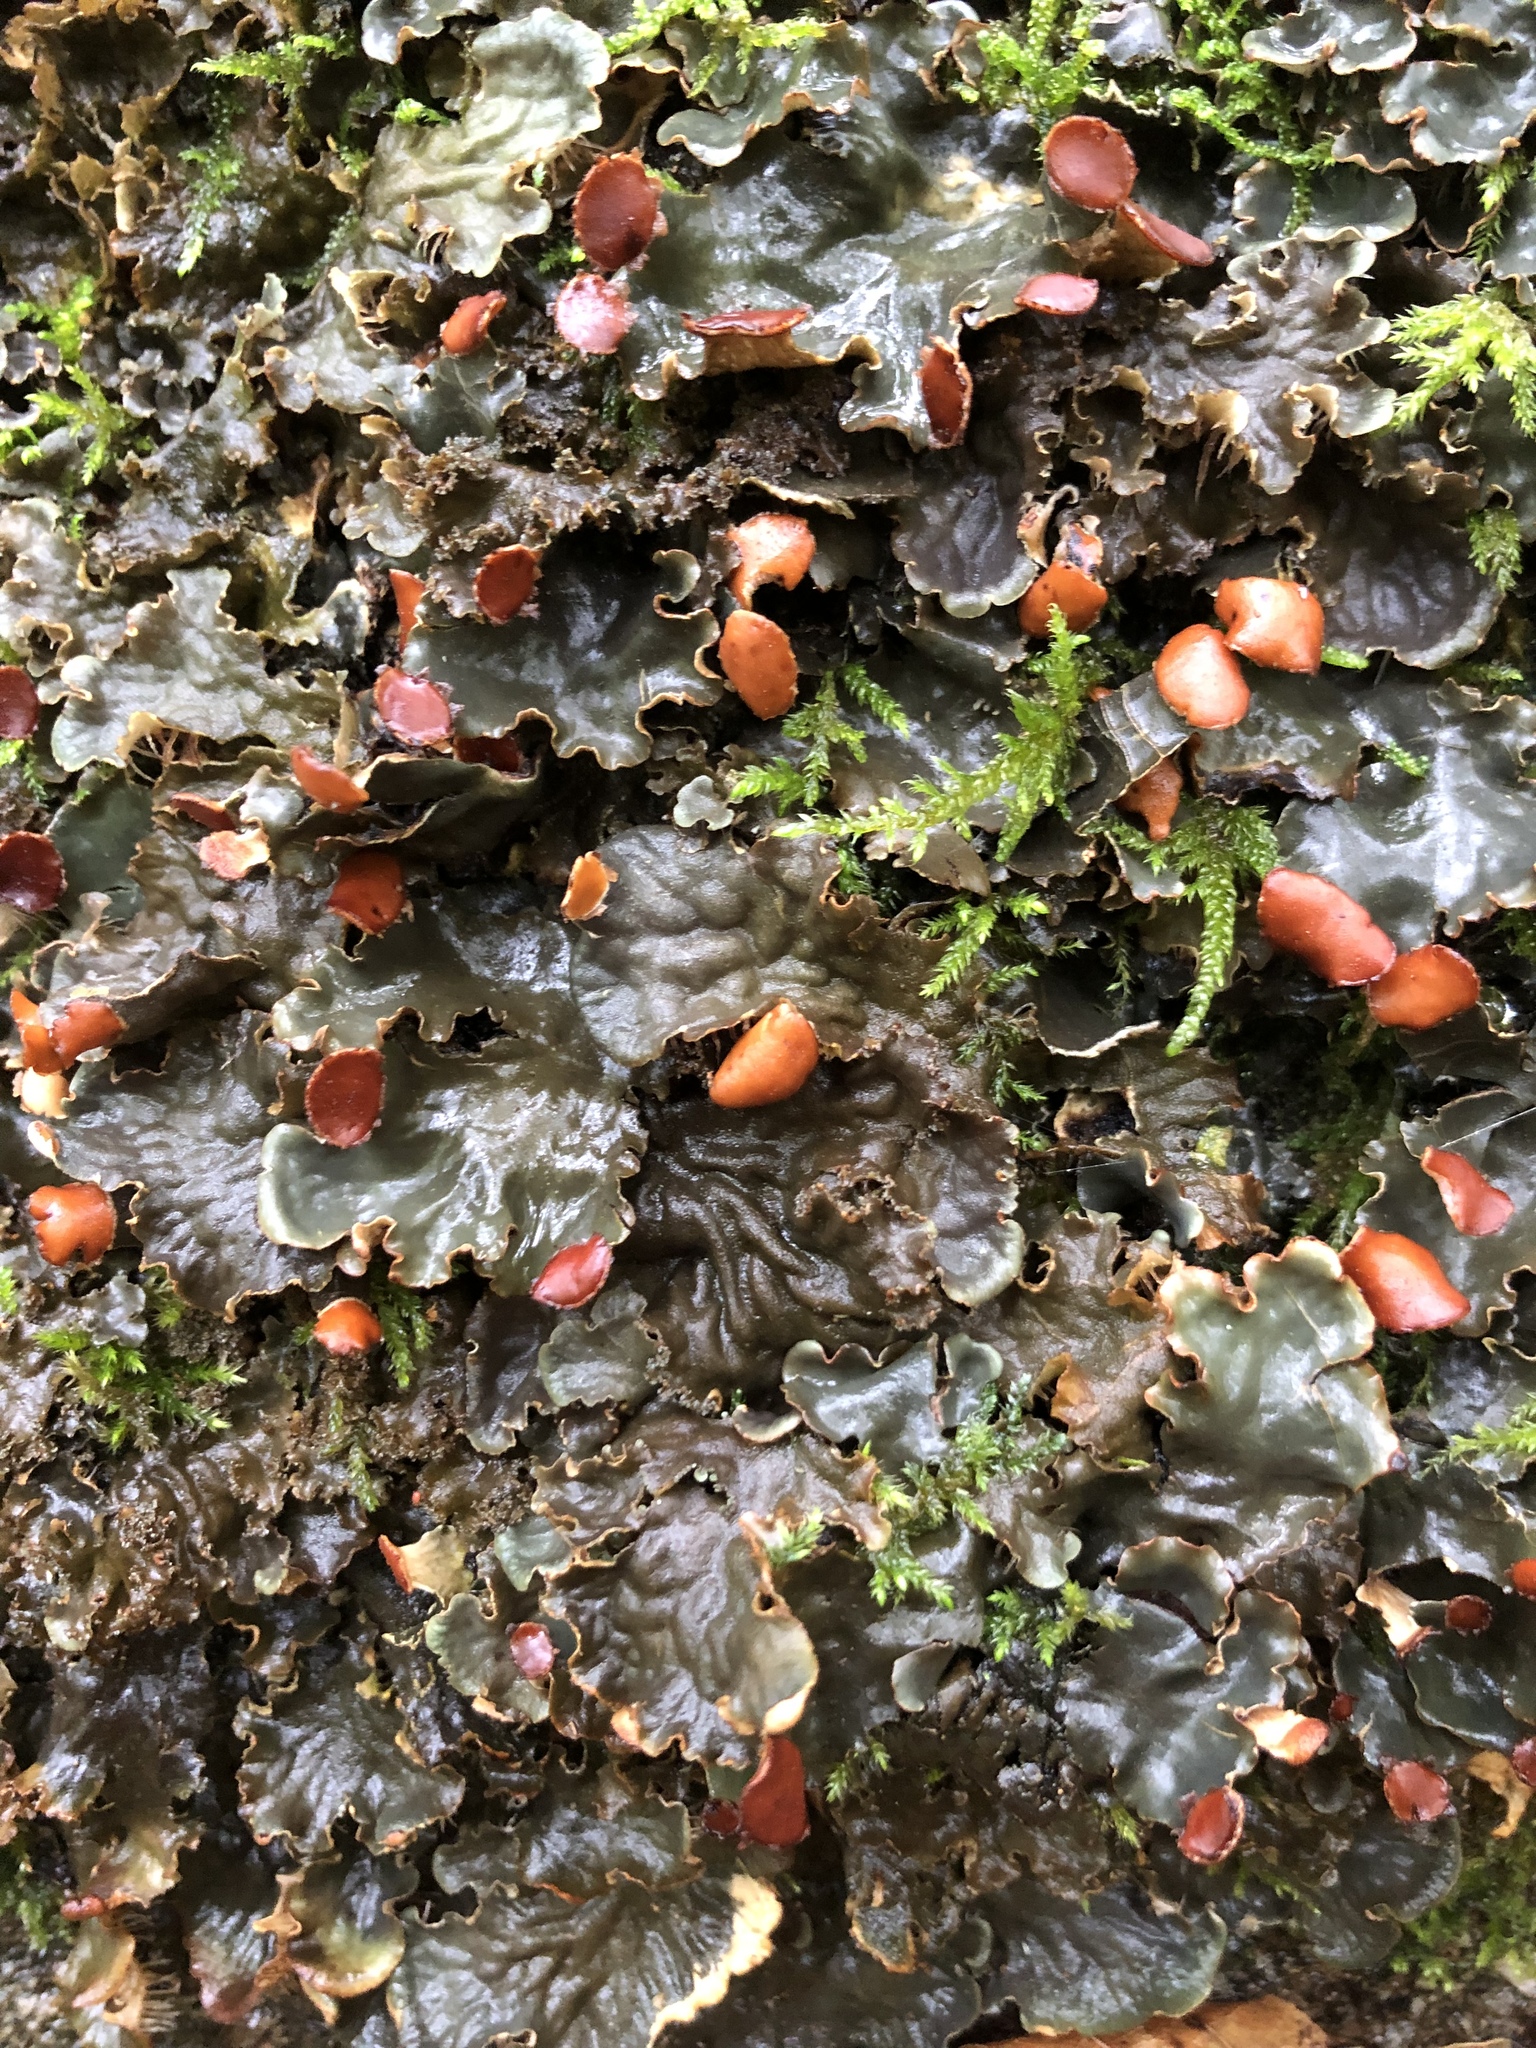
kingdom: Fungi
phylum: Ascomycota
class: Lecanoromycetes
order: Peltigerales
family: Peltigeraceae
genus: Peltigera
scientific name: Peltigera horizontalis
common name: Flat fruited pelt
